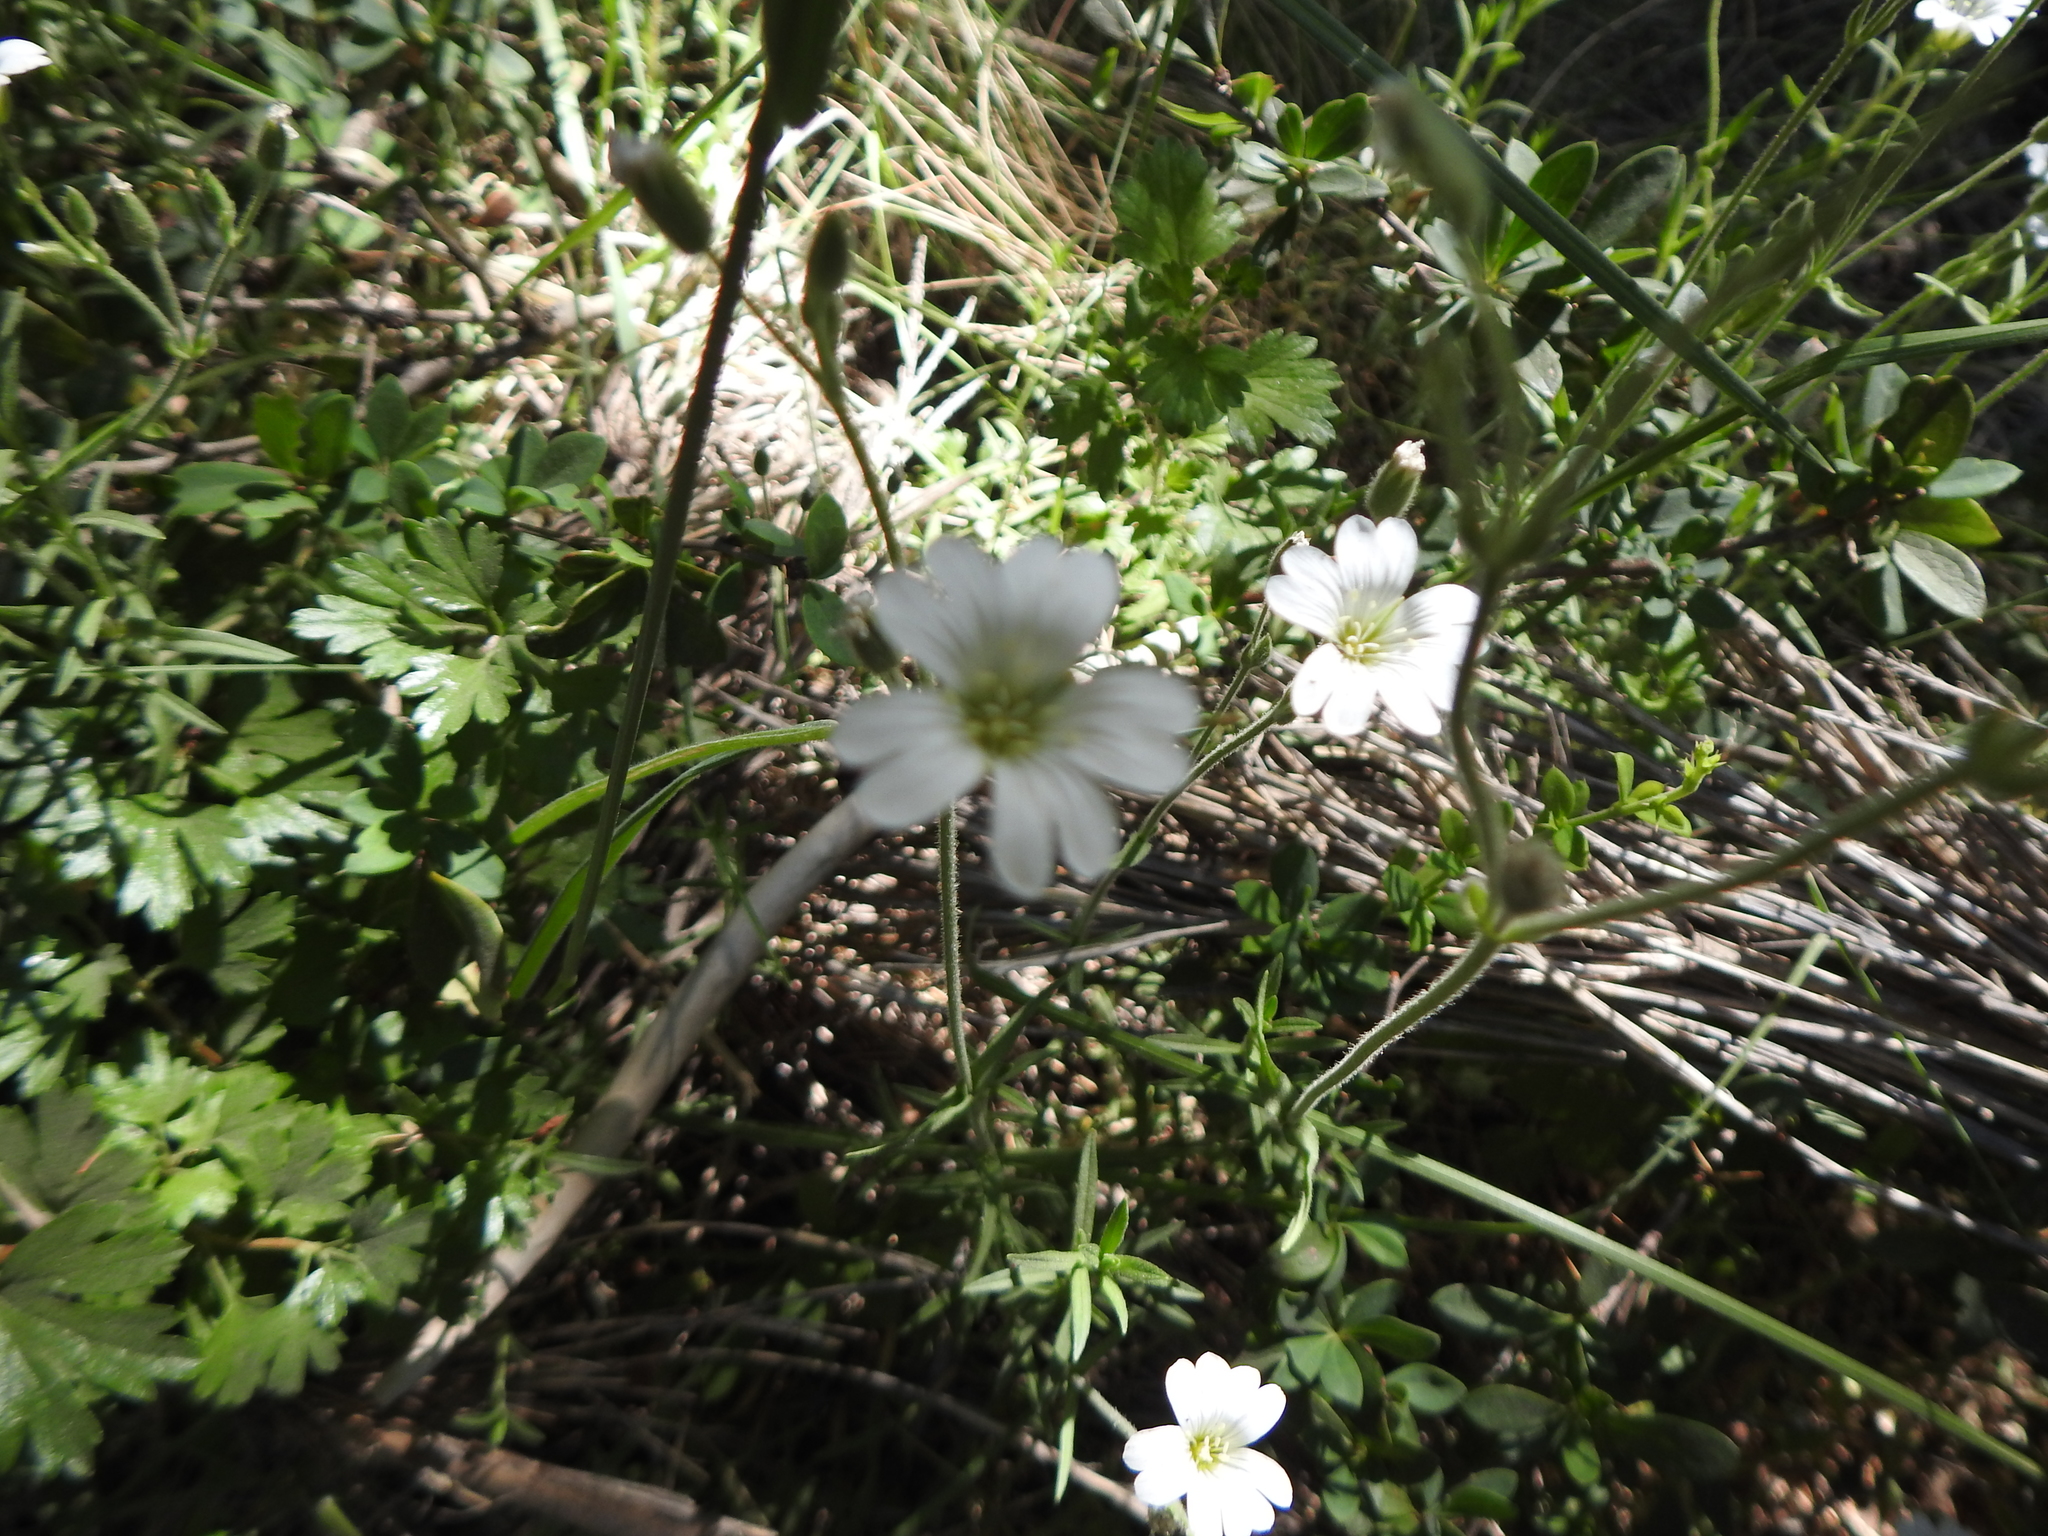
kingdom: Plantae
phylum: Tracheophyta
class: Magnoliopsida
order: Caryophyllales
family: Caryophyllaceae
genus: Cerastium
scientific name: Cerastium arvense
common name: Field mouse-ear
